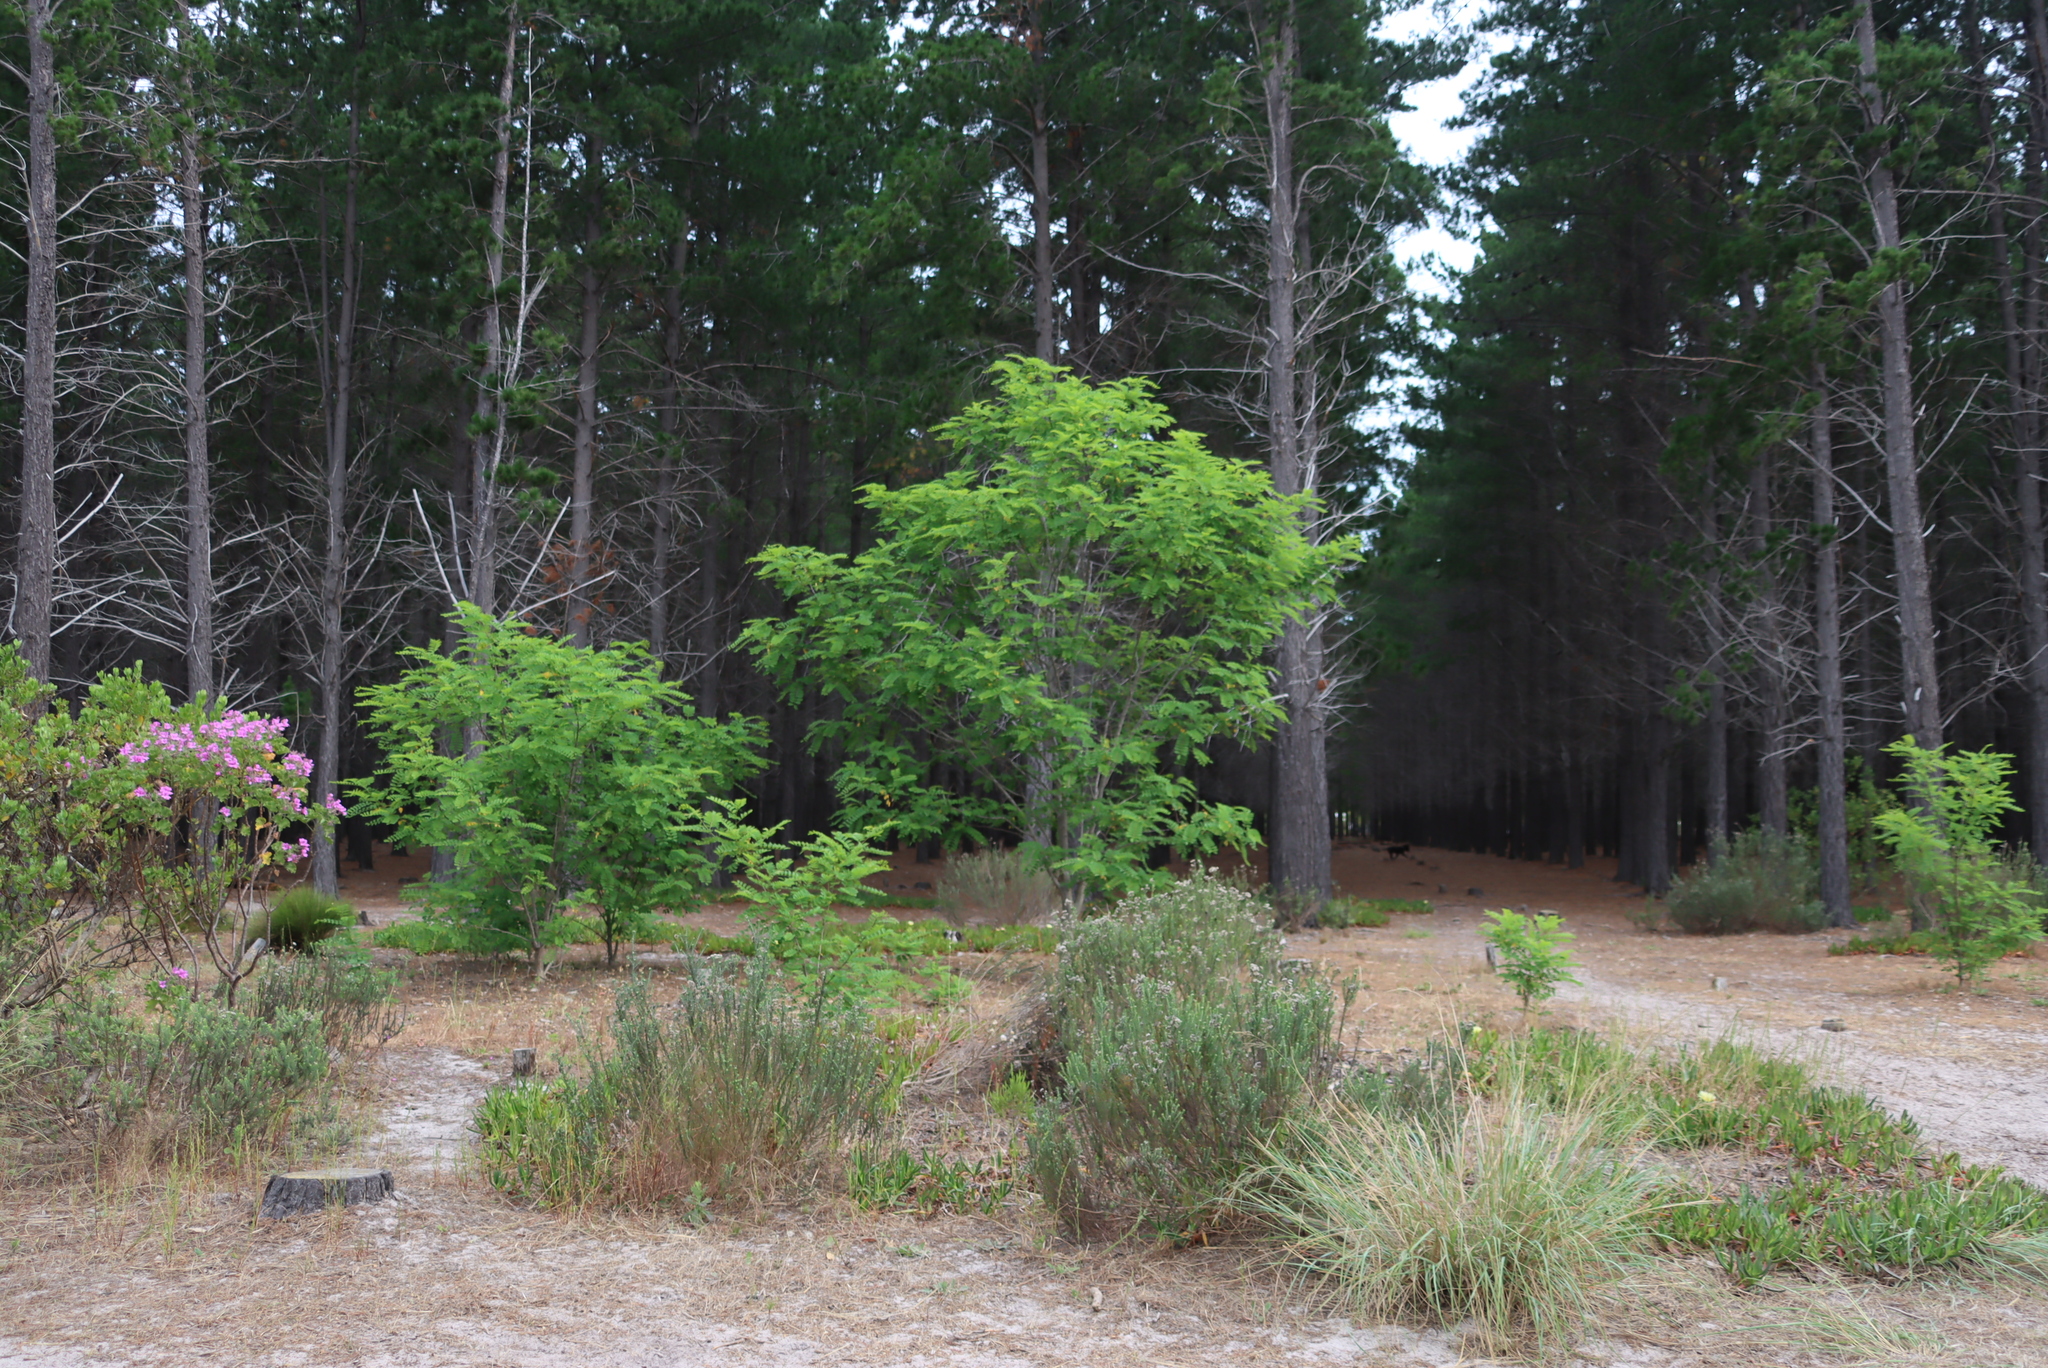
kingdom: Plantae
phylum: Tracheophyta
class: Magnoliopsida
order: Fabales
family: Fabaceae
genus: Robinia
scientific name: Robinia pseudoacacia
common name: Black locust
